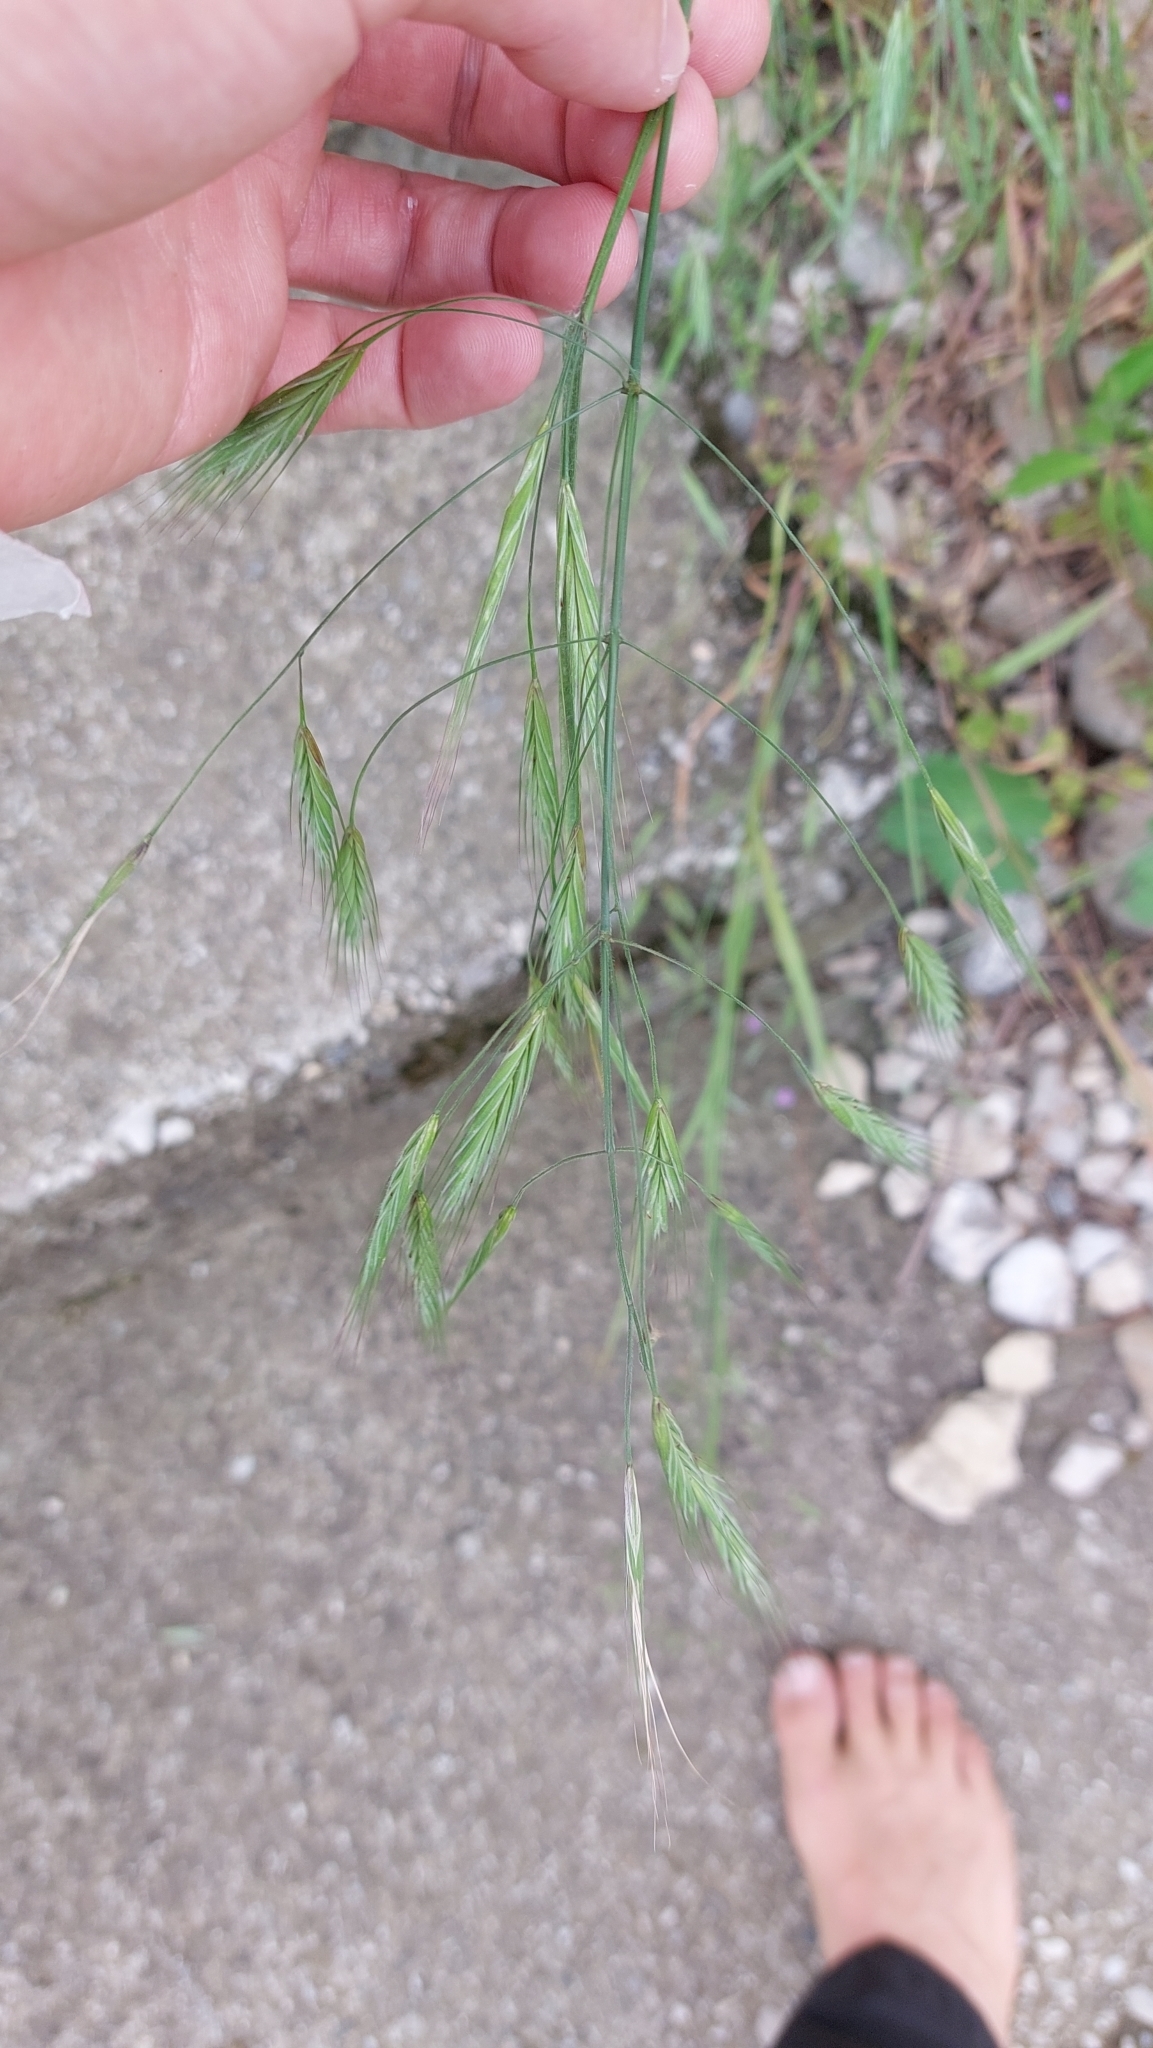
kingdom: Plantae
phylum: Tracheophyta
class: Liliopsida
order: Poales
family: Poaceae
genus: Bromus
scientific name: Bromus sterilis
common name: Poverty brome
